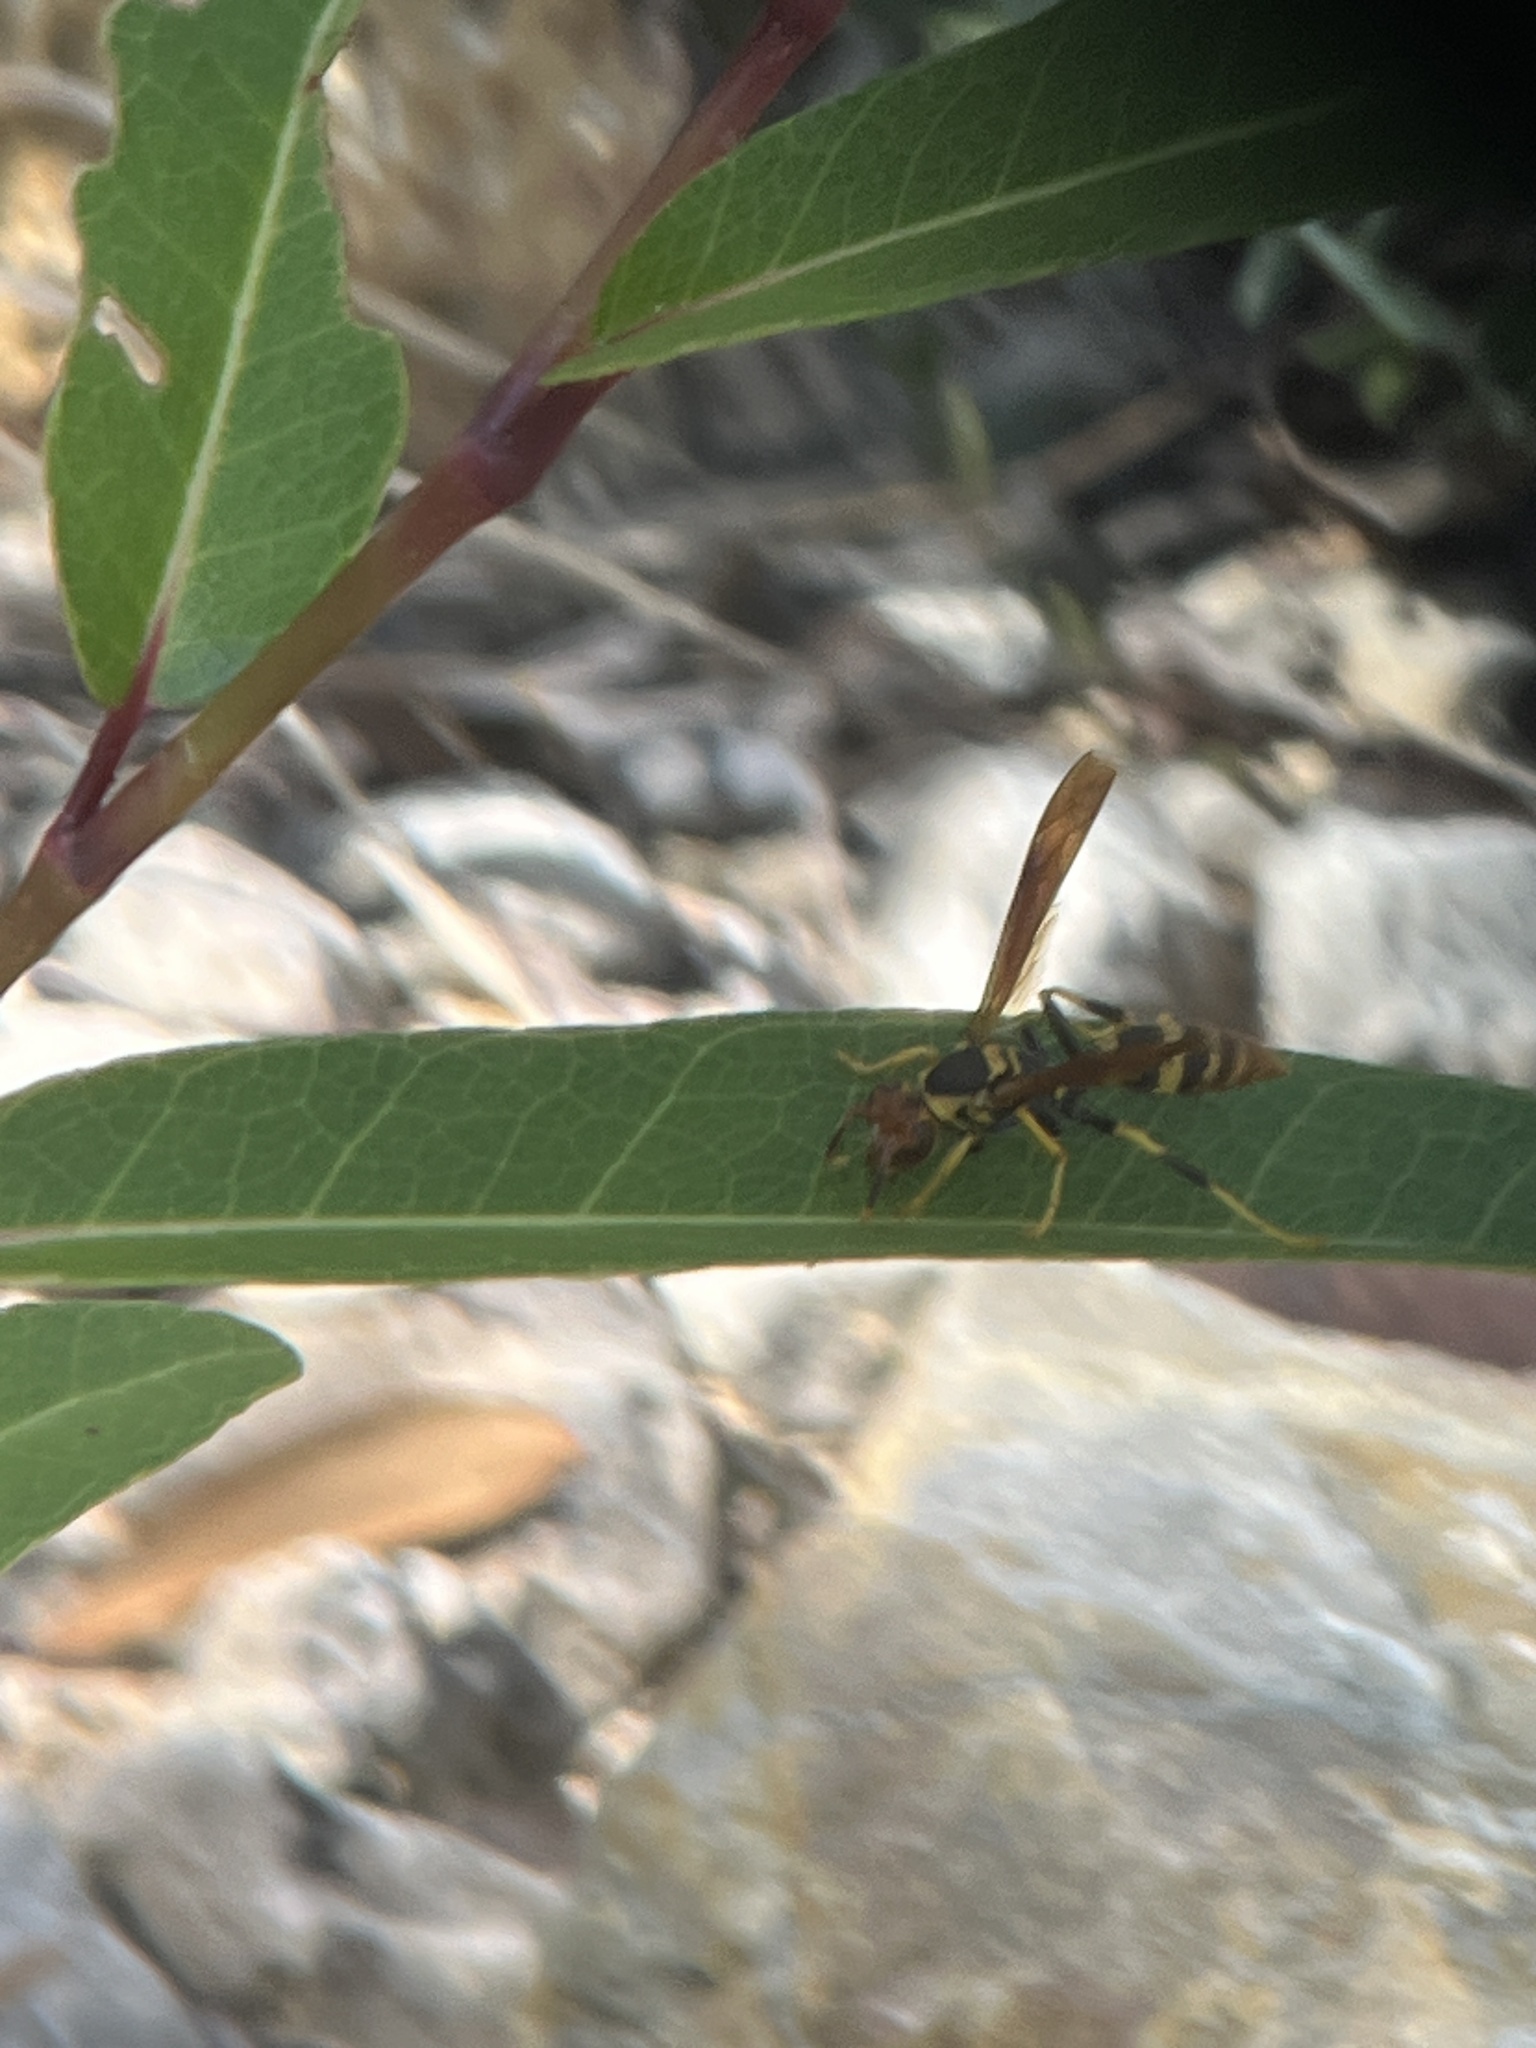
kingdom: Animalia
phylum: Arthropoda
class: Insecta
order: Hymenoptera
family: Eumenidae
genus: Polistes
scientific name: Polistes crinitus
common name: Jack spaniard
